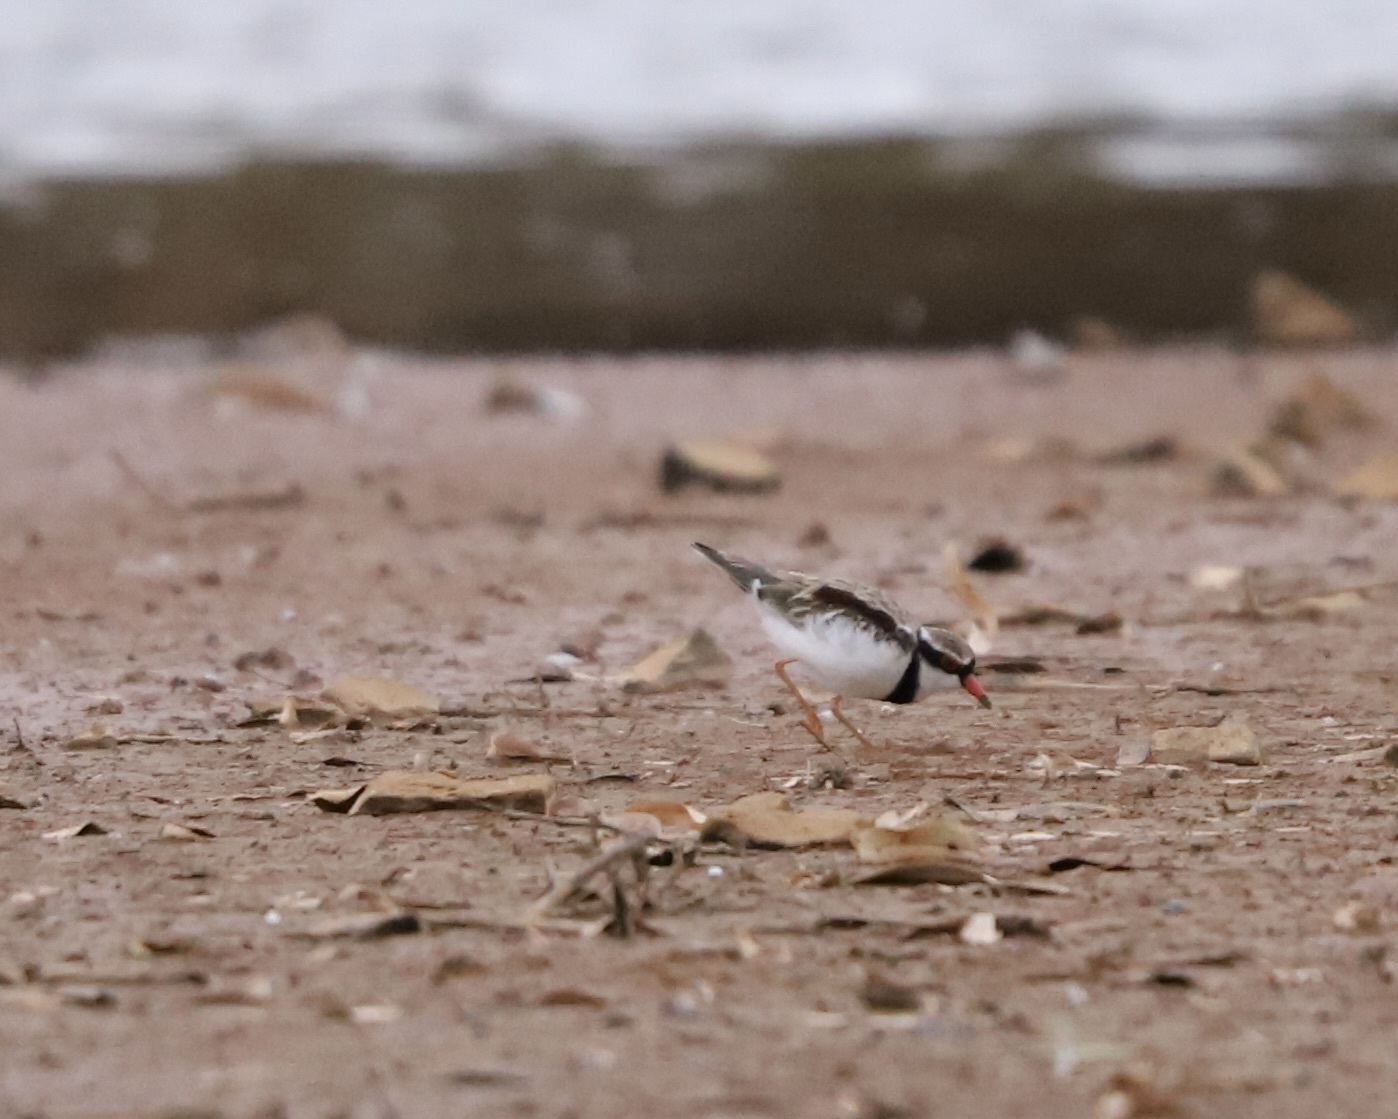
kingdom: Animalia
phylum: Chordata
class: Aves
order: Charadriiformes
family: Charadriidae
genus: Elseyornis
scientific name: Elseyornis melanops
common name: Black-fronted dotterel
